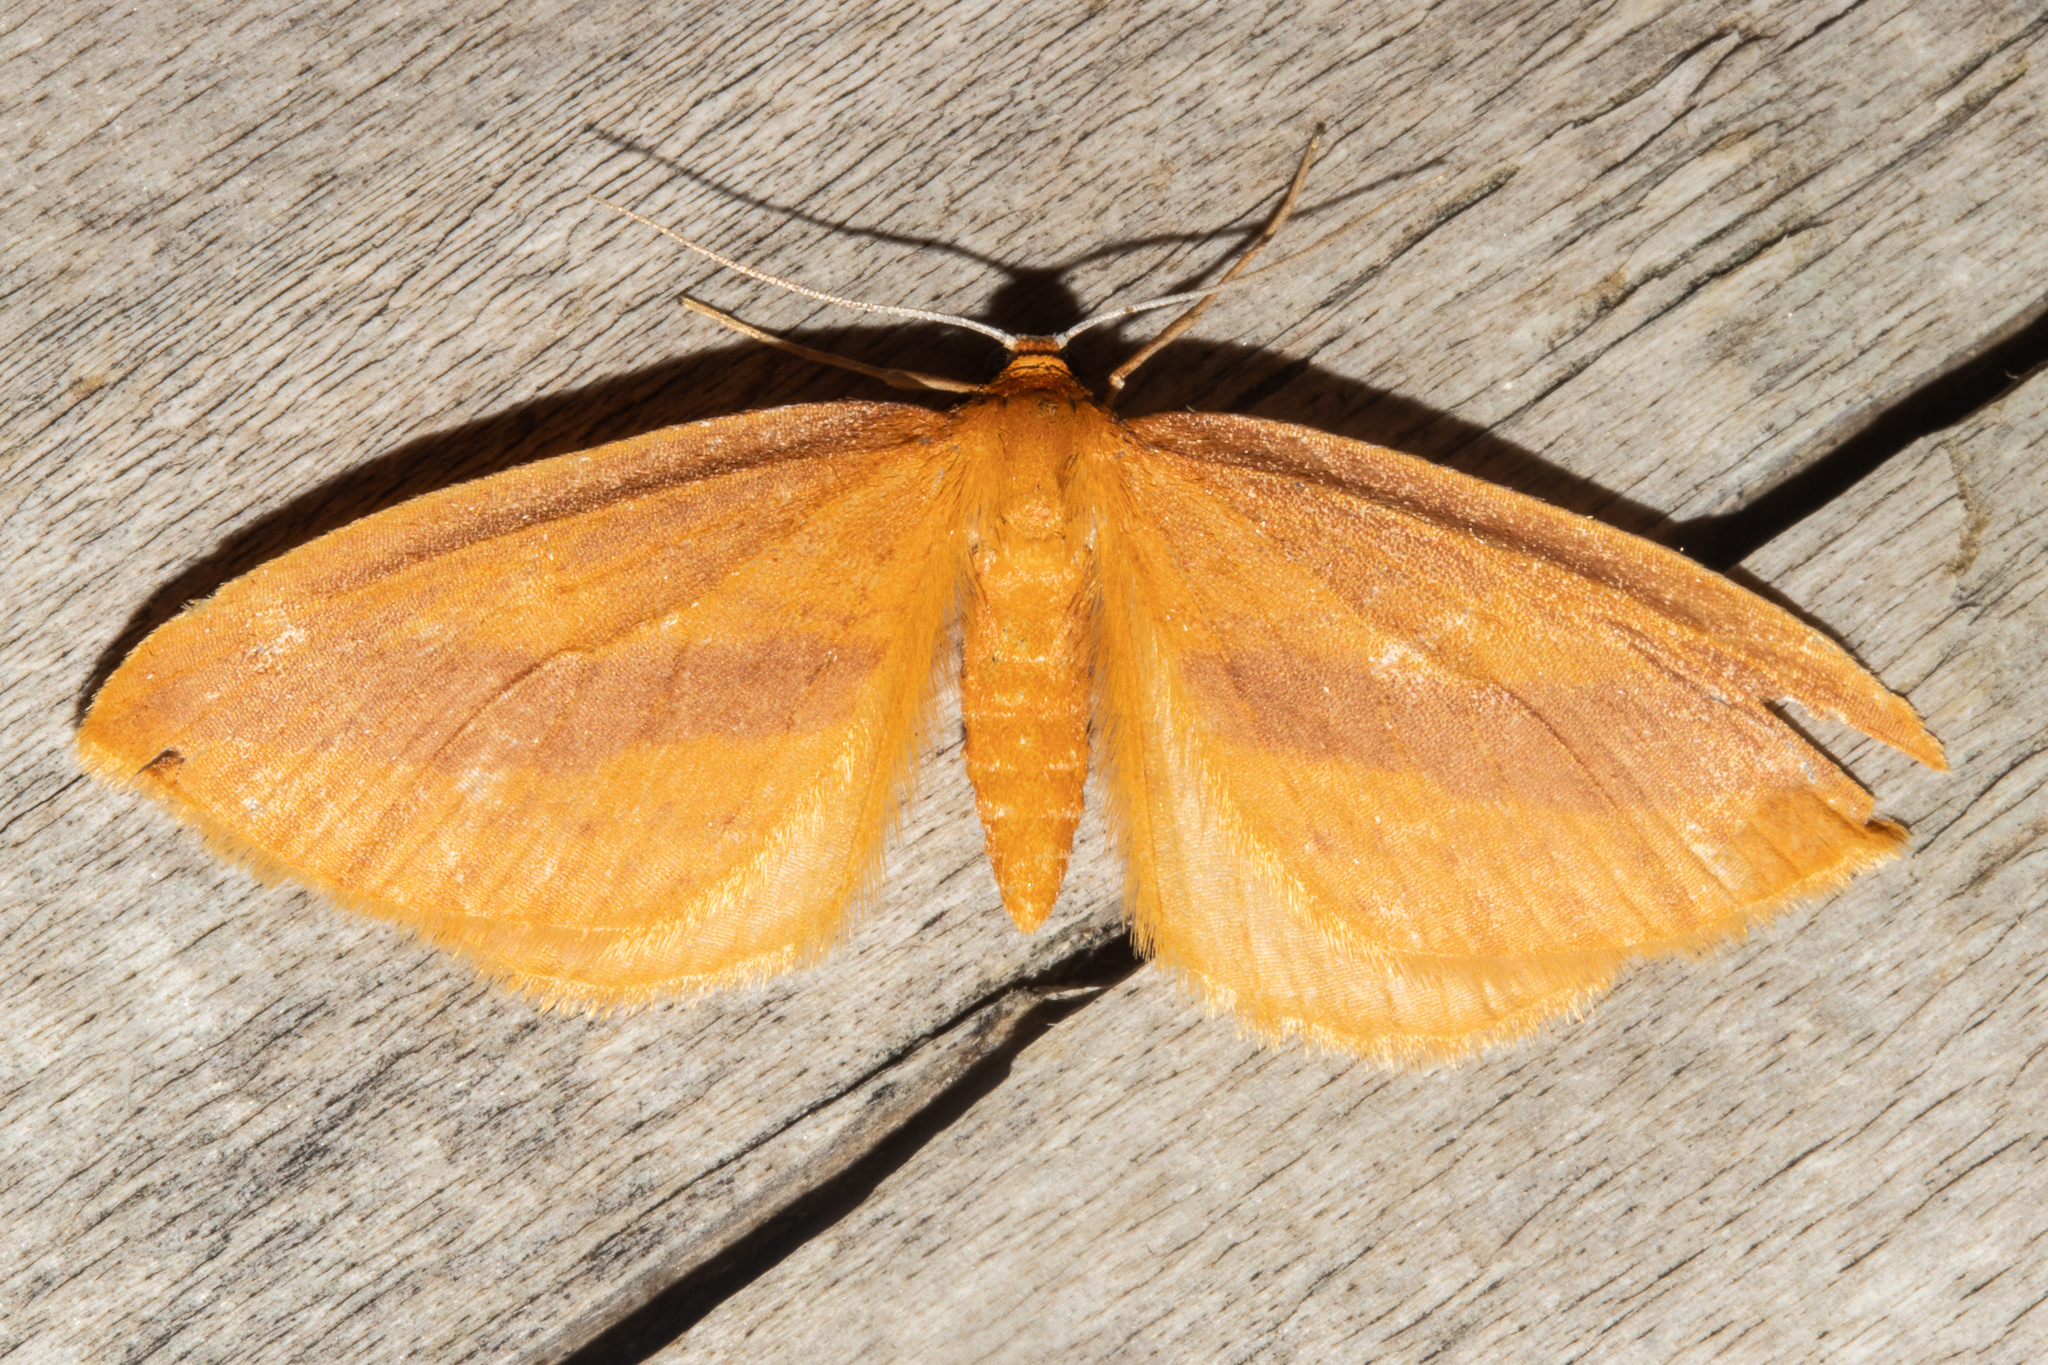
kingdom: Animalia
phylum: Arthropoda
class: Insecta
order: Lepidoptera
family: Geometridae
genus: Epiphryne
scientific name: Epiphryne charidema
